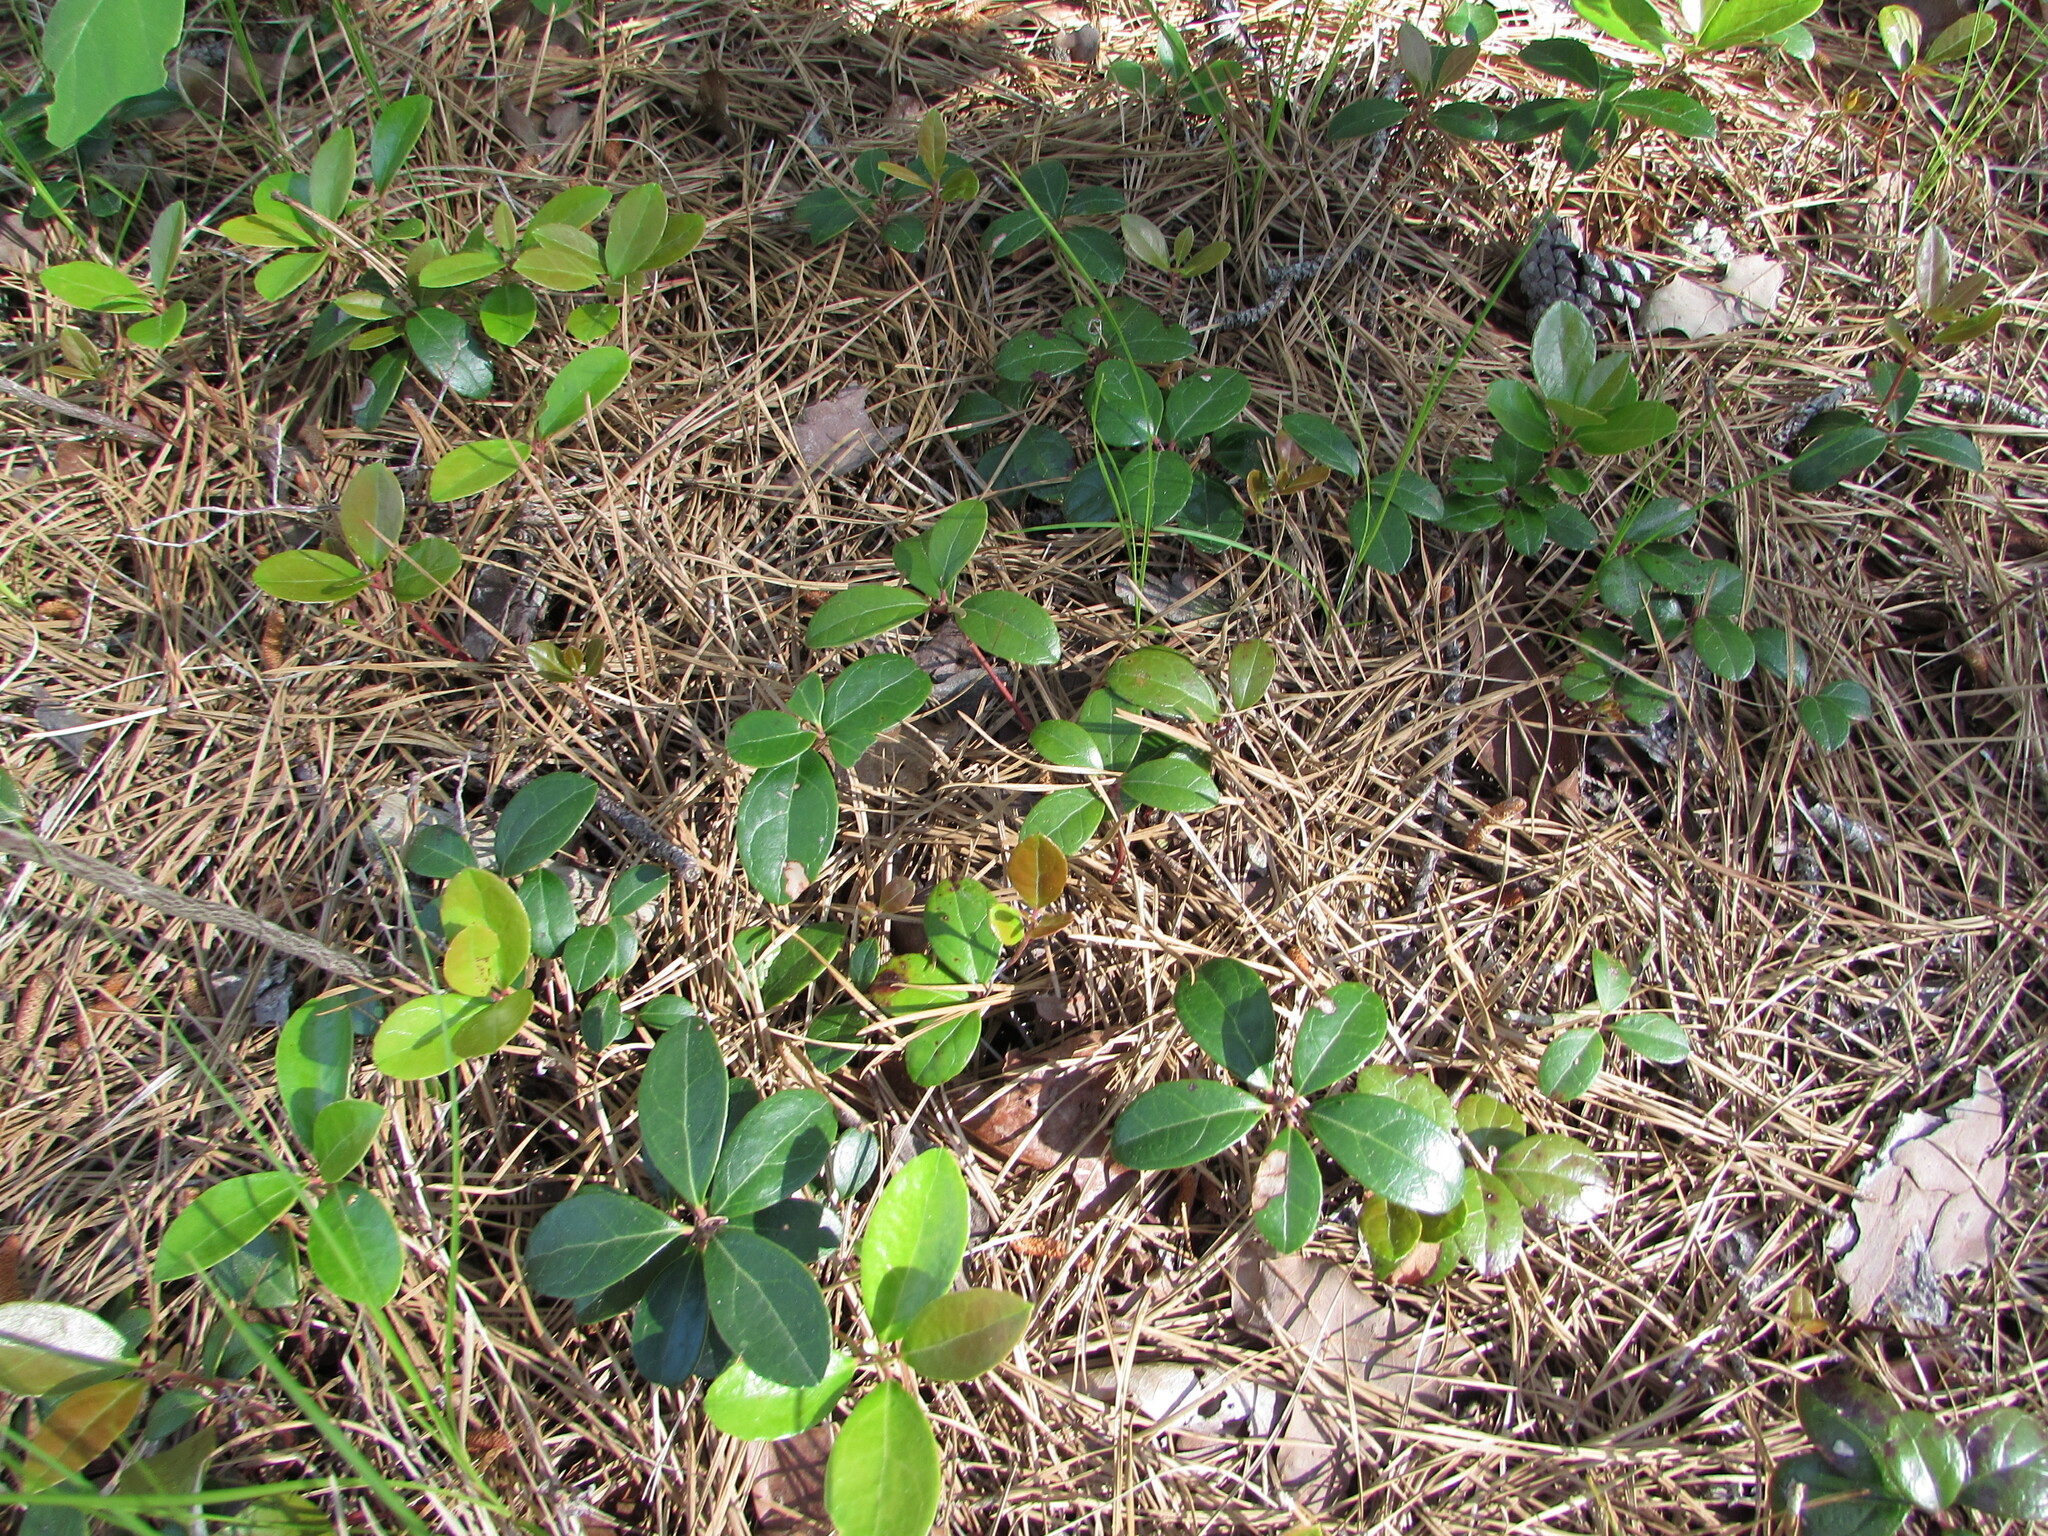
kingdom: Plantae
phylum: Tracheophyta
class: Magnoliopsida
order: Ericales
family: Ericaceae
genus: Gaultheria
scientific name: Gaultheria procumbens
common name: Checkerberry
